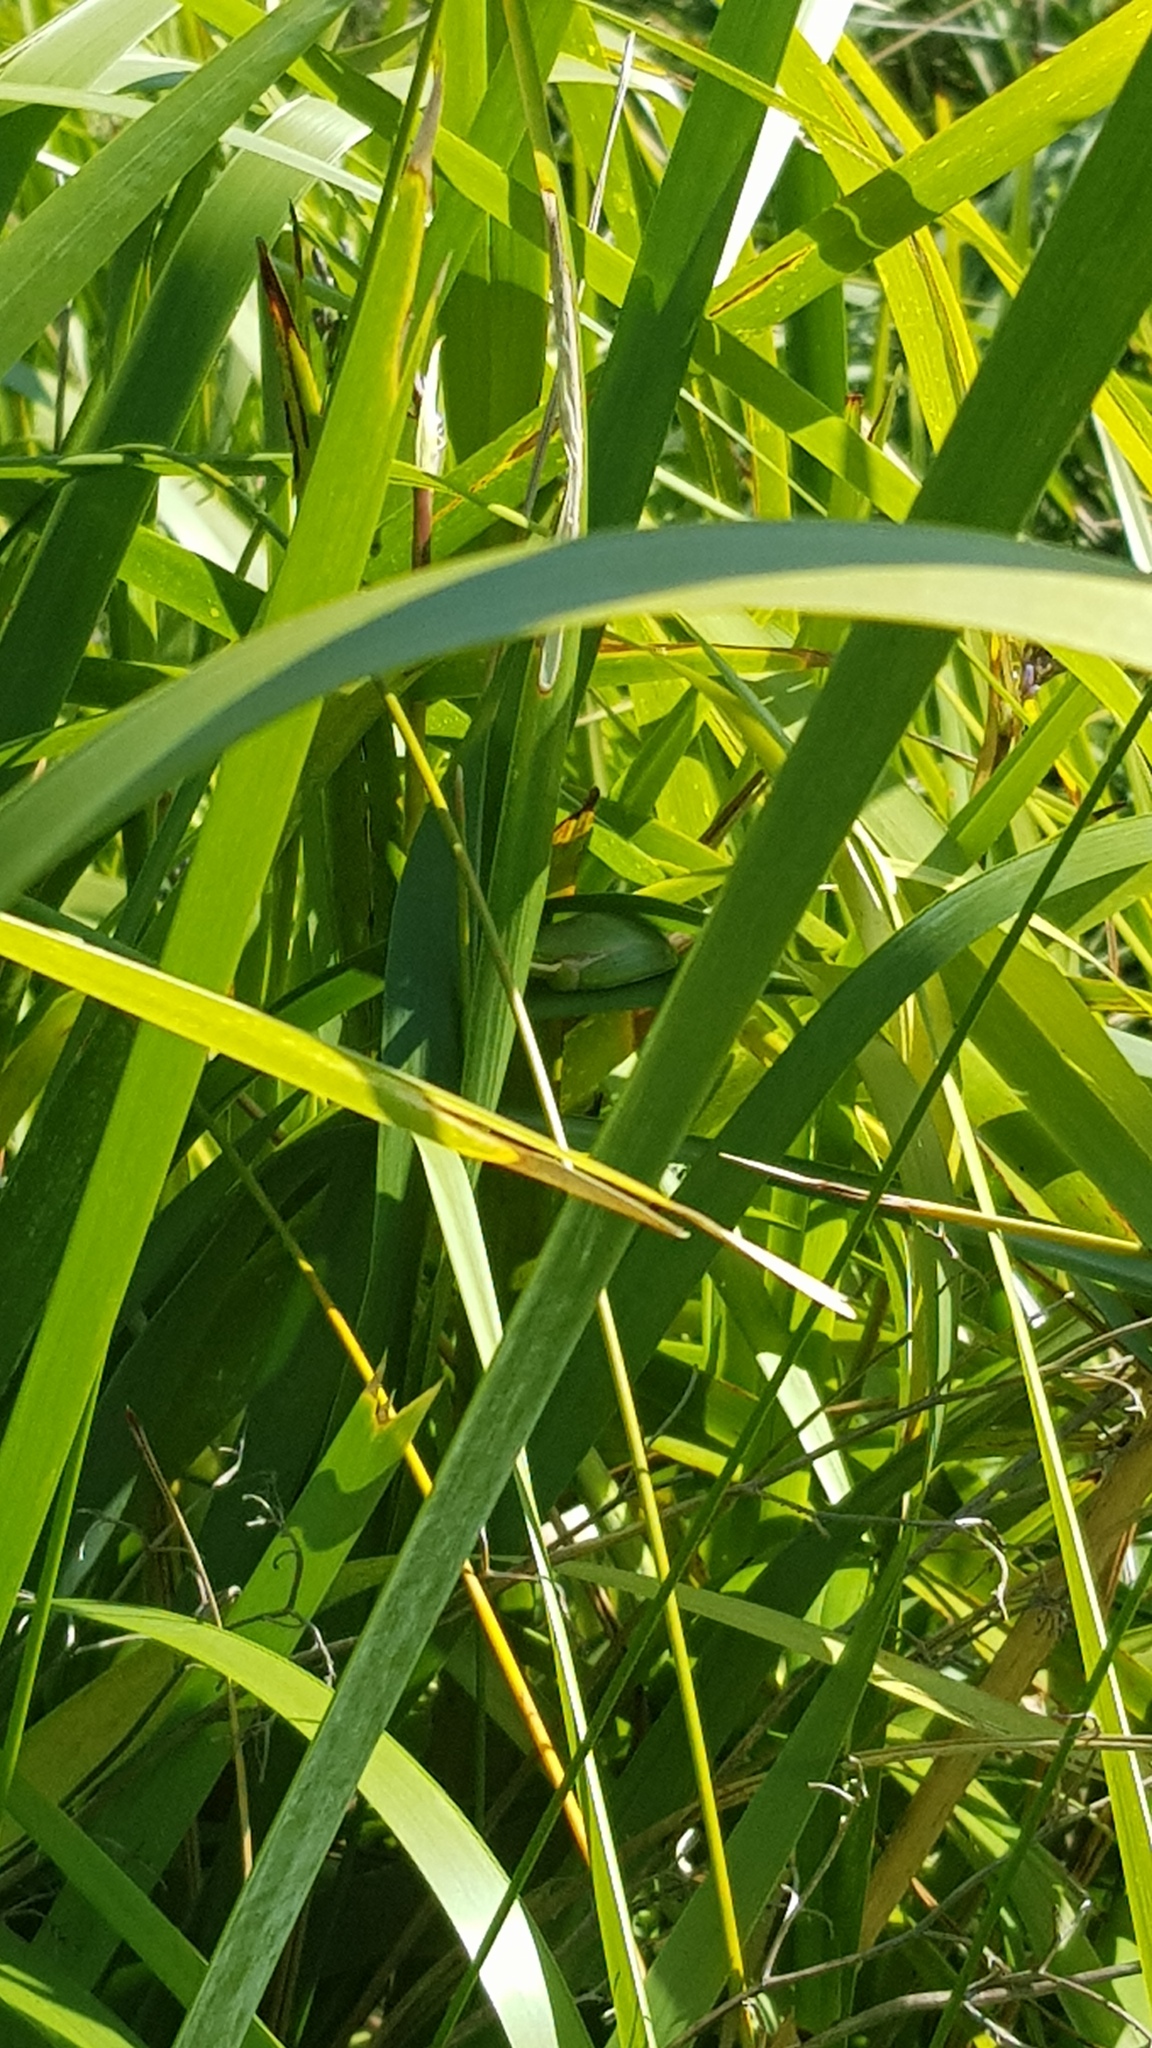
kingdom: Animalia
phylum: Chordata
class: Amphibia
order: Anura
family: Pelodryadidae
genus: Litoria
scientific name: Litoria fallax
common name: Eastern dwarf treefrog
